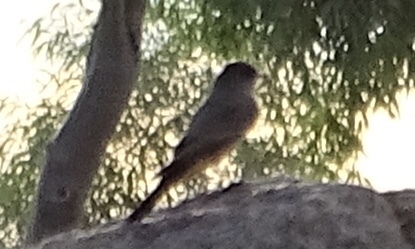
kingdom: Animalia
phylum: Chordata
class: Aves
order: Passeriformes
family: Tyrannidae
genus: Sayornis
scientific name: Sayornis saya
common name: Say's phoebe
